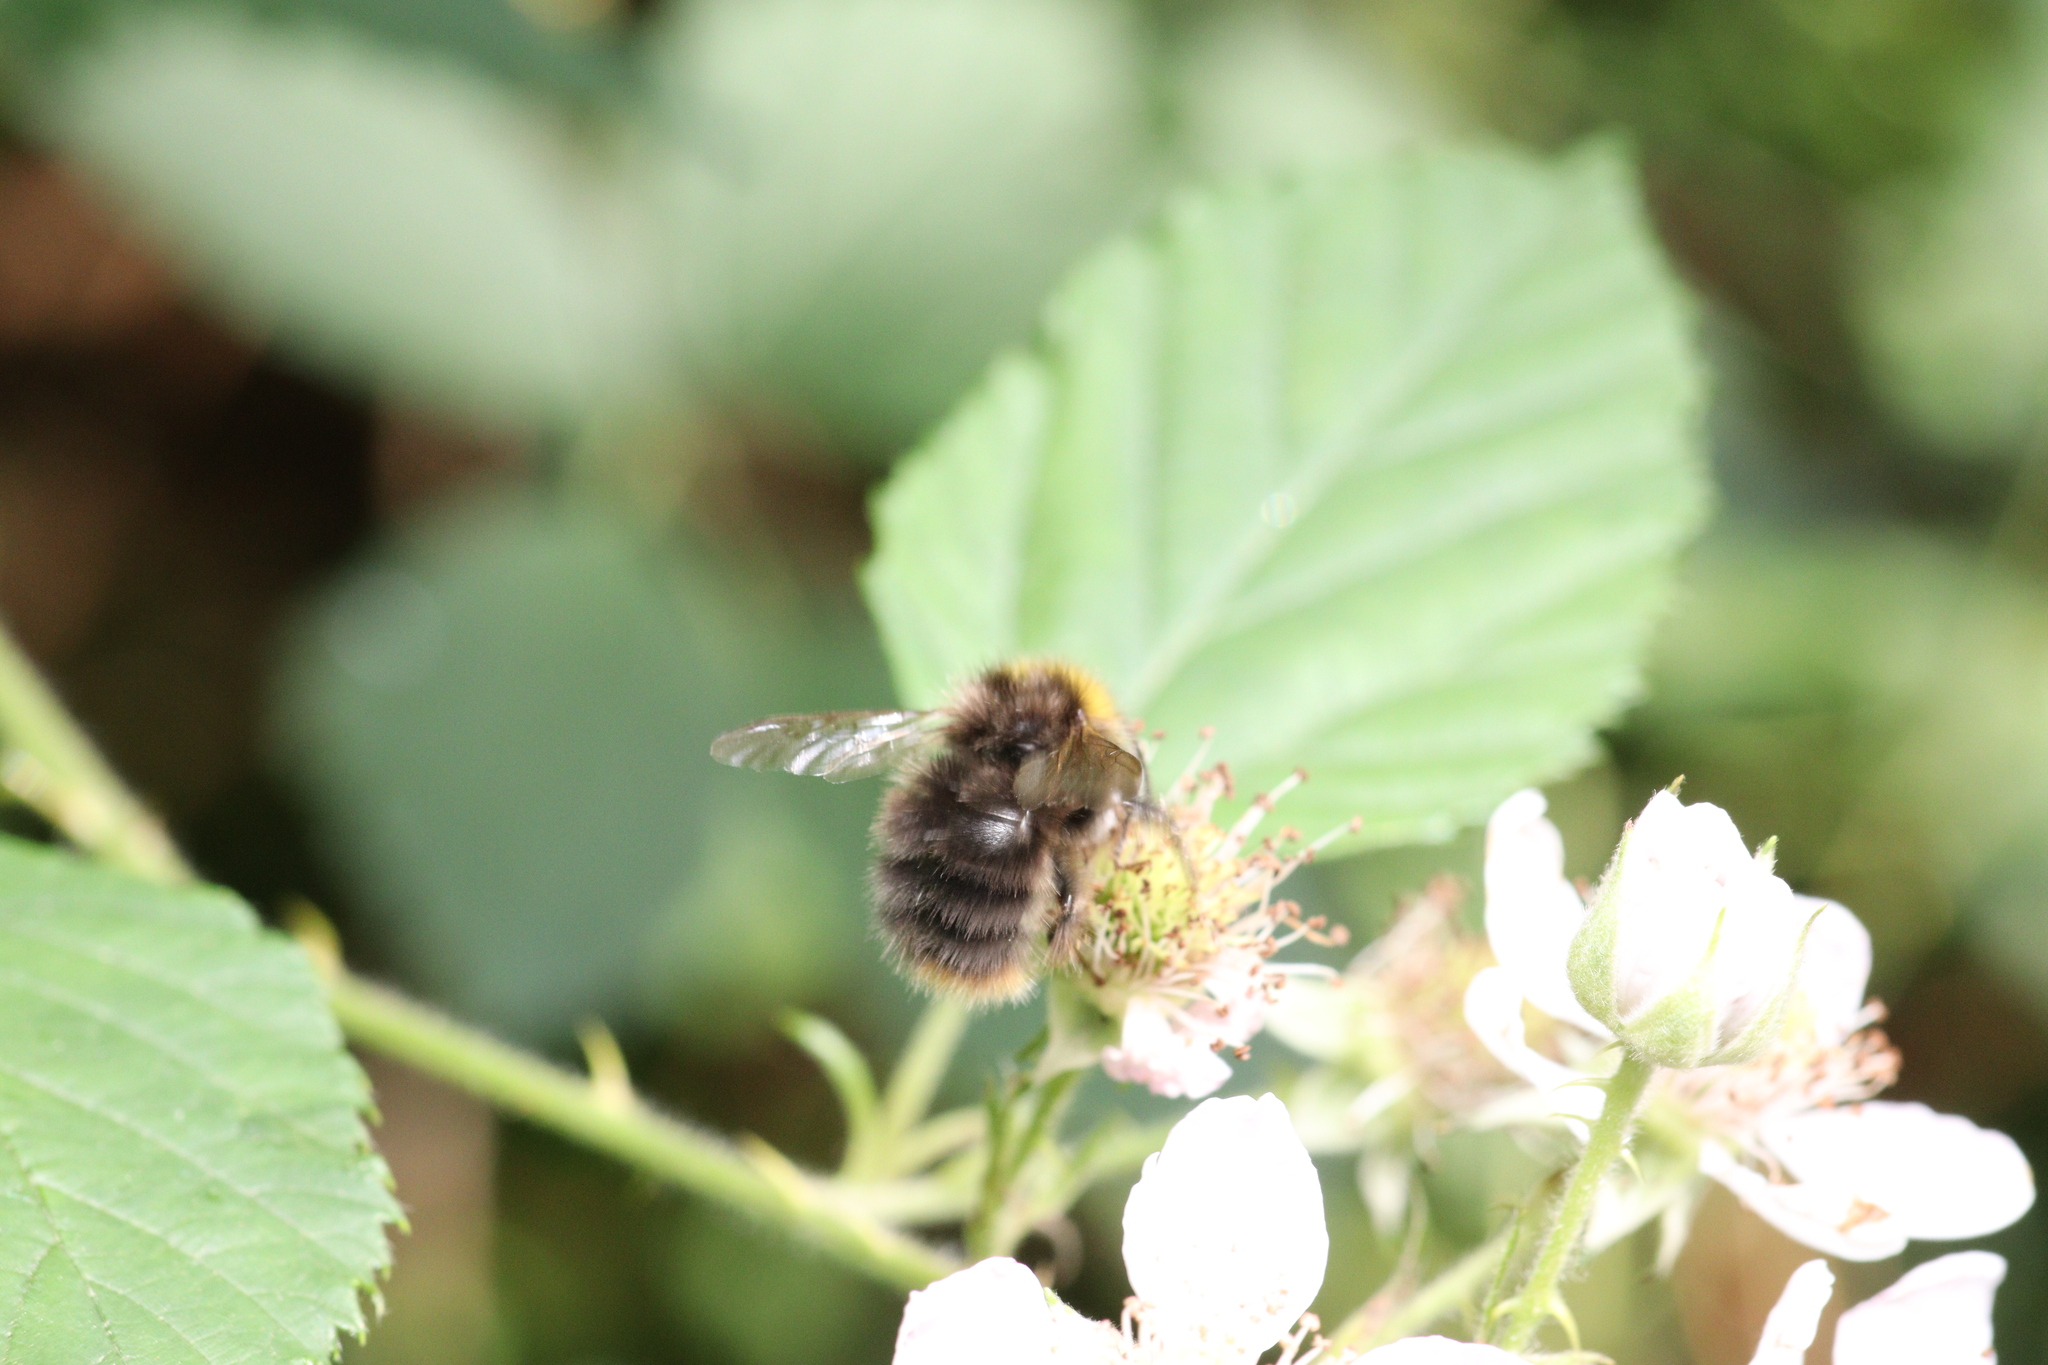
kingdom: Animalia
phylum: Arthropoda
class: Insecta
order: Hymenoptera
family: Apidae
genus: Bombus
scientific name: Bombus pratorum
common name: Early humble-bee
